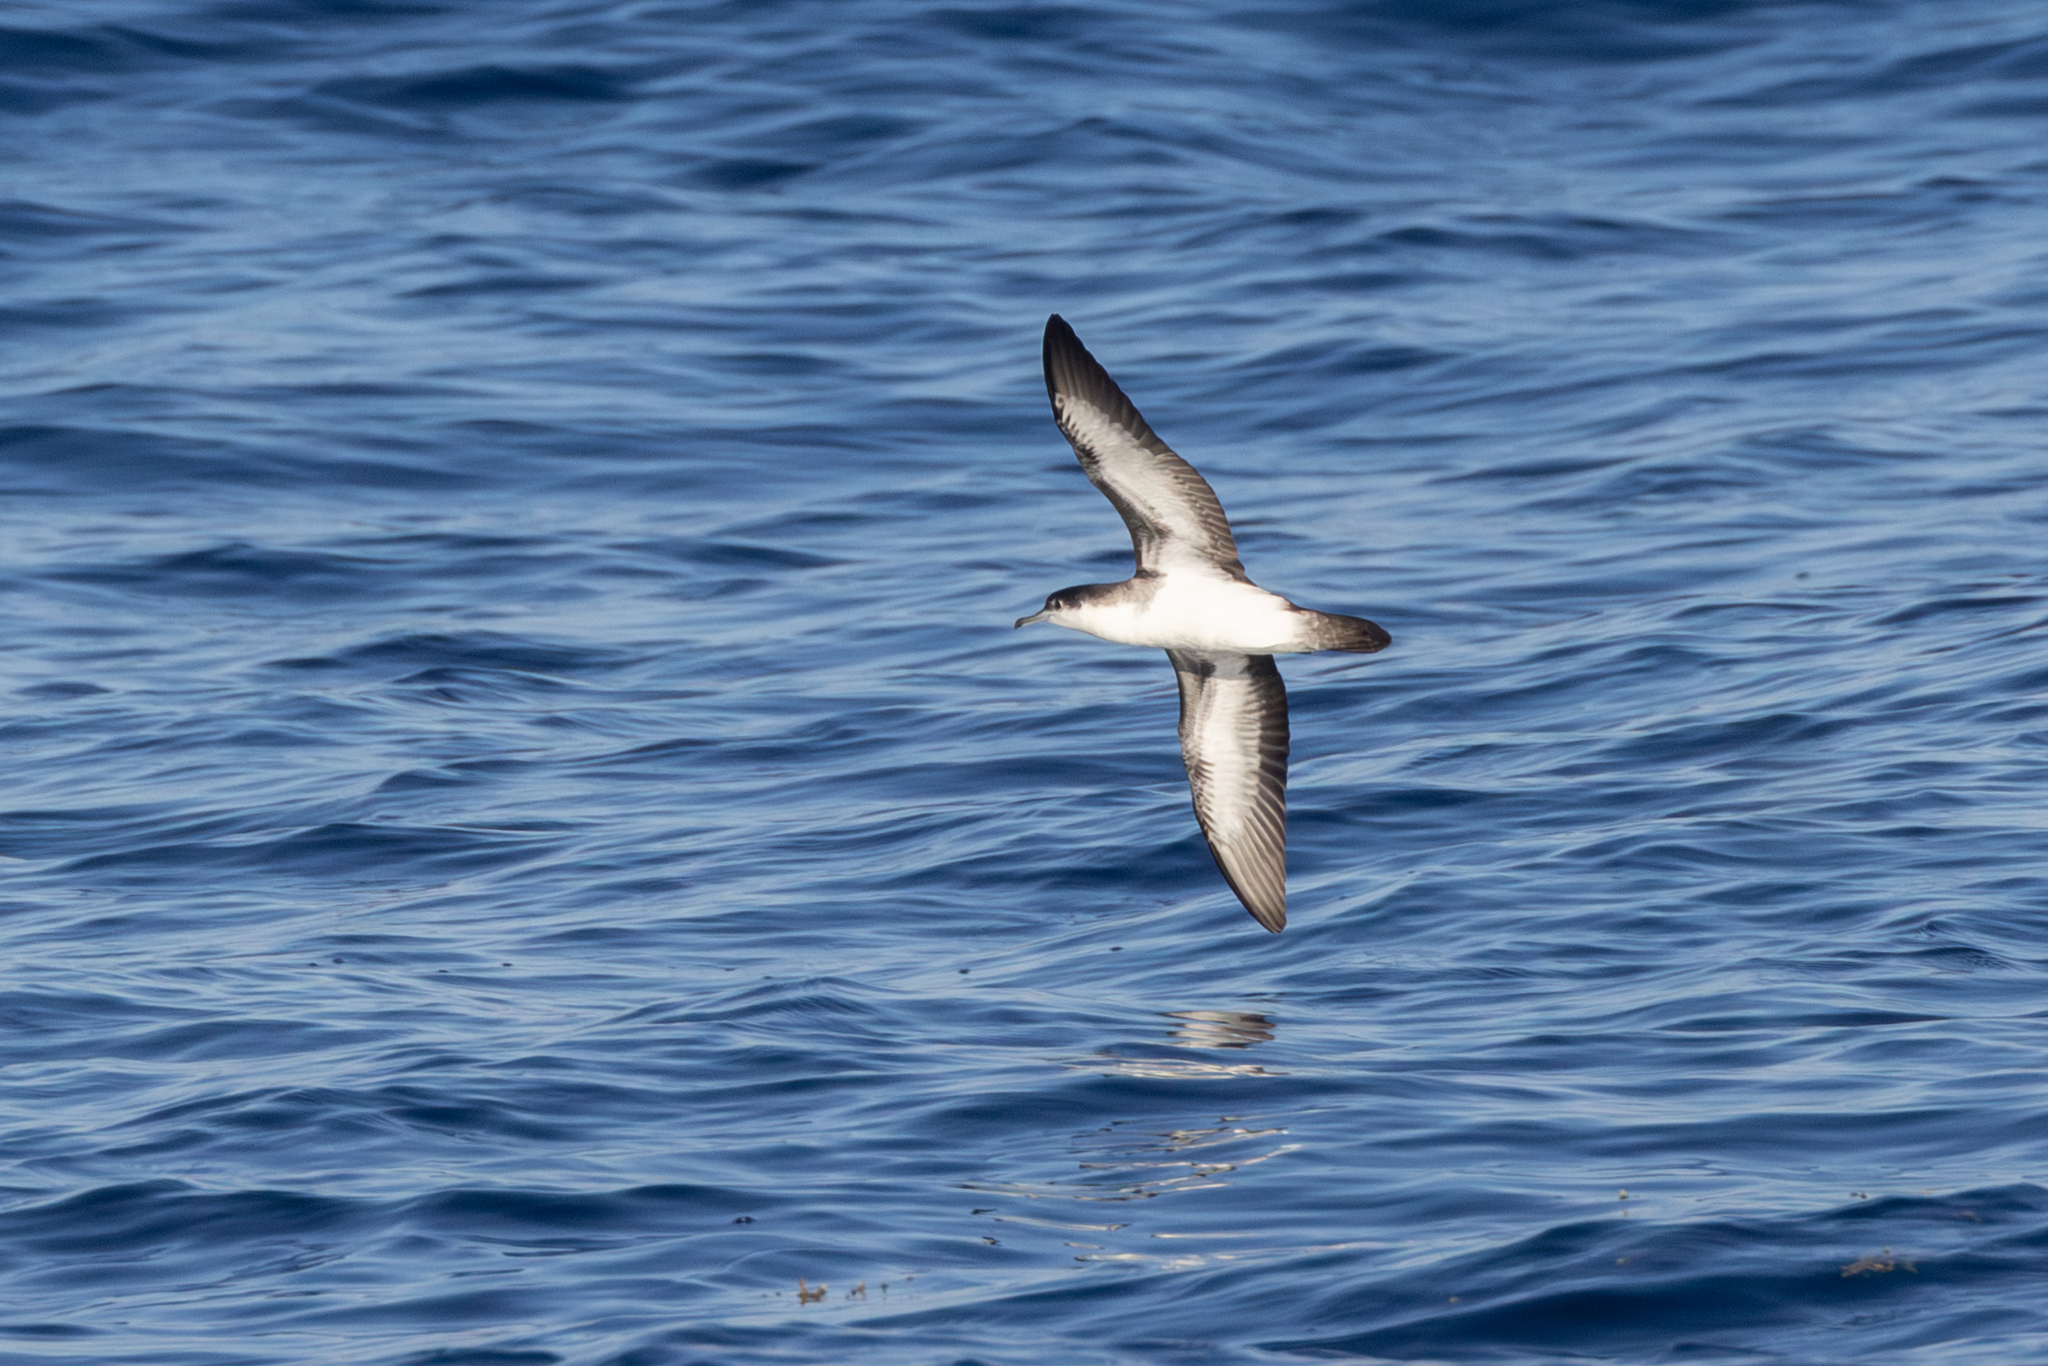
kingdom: Animalia
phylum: Chordata
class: Aves
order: Procellariiformes
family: Procellariidae
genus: Puffinus
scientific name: Puffinus lherminieri
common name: Audubon's shearwater
